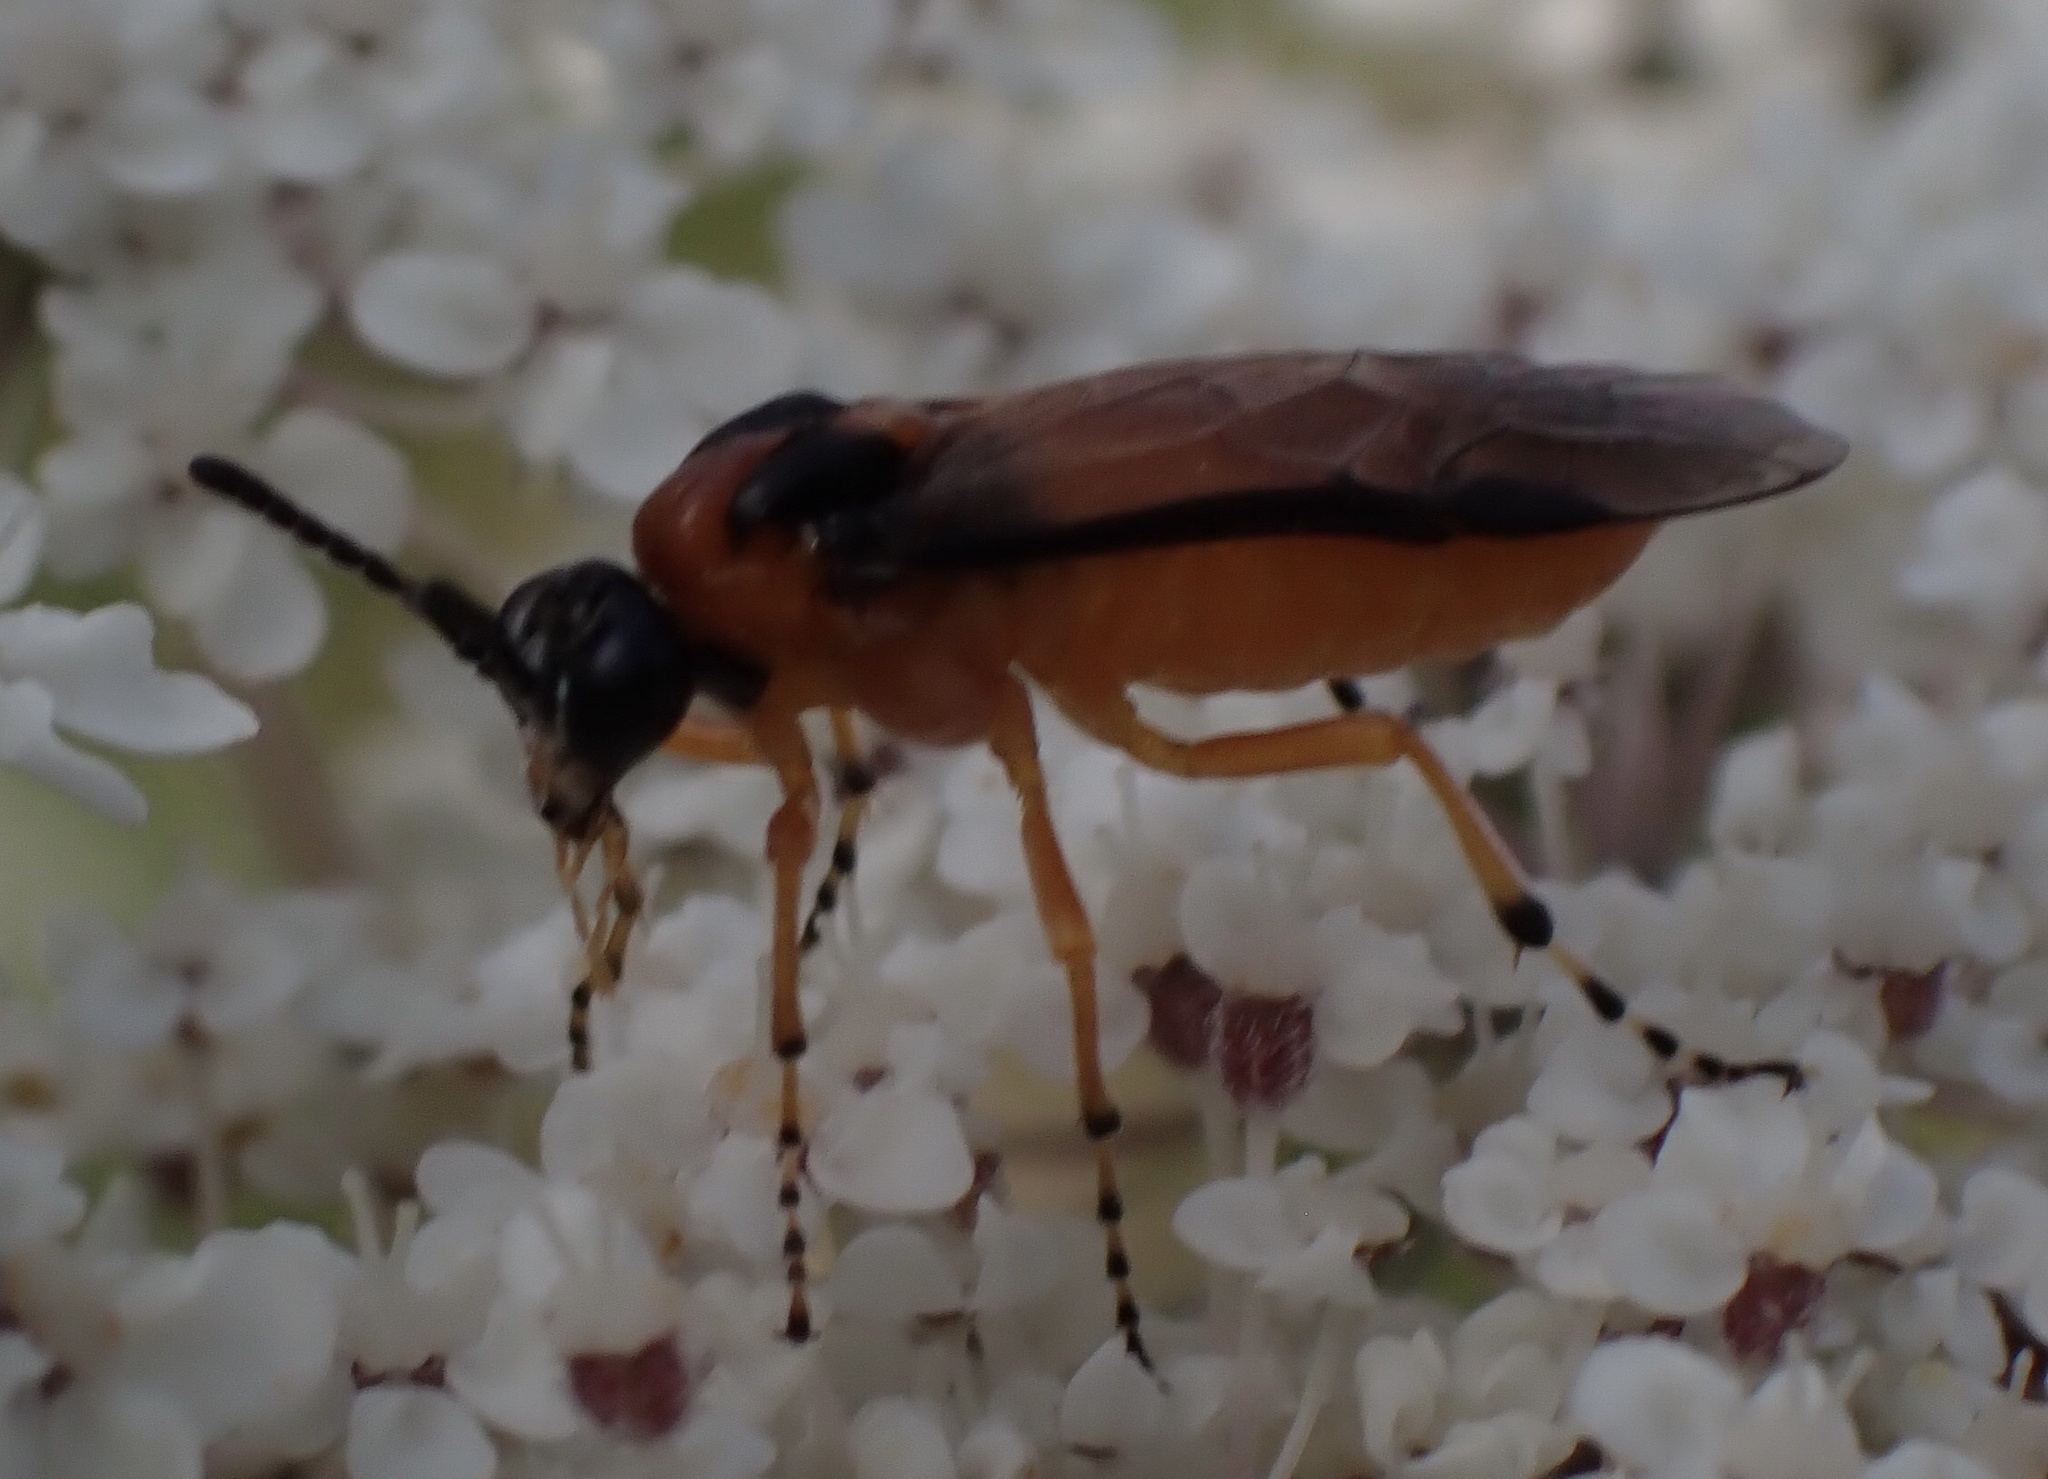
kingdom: Animalia
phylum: Arthropoda
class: Insecta
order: Hymenoptera
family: Tenthredinidae
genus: Athalia
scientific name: Athalia rosae
